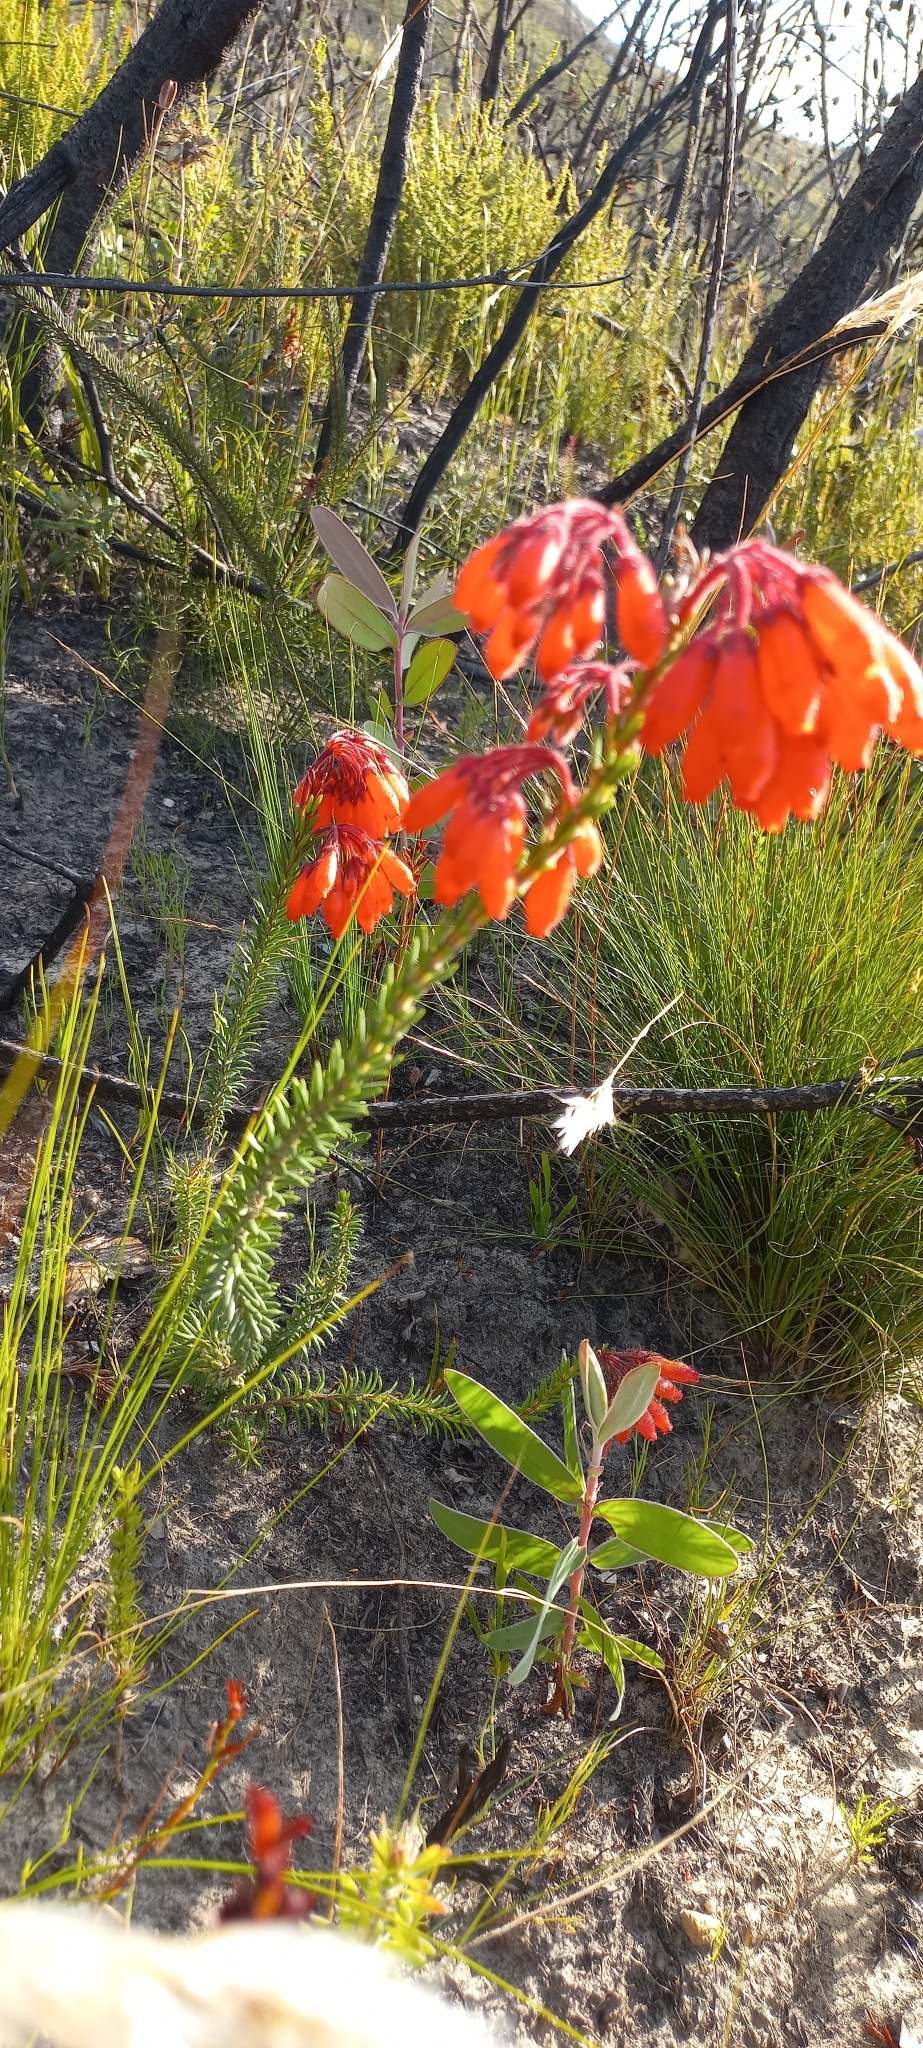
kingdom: Plantae
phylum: Tracheophyta
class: Magnoliopsida
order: Ericales
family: Ericaceae
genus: Erica
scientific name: Erica cerinthoides
